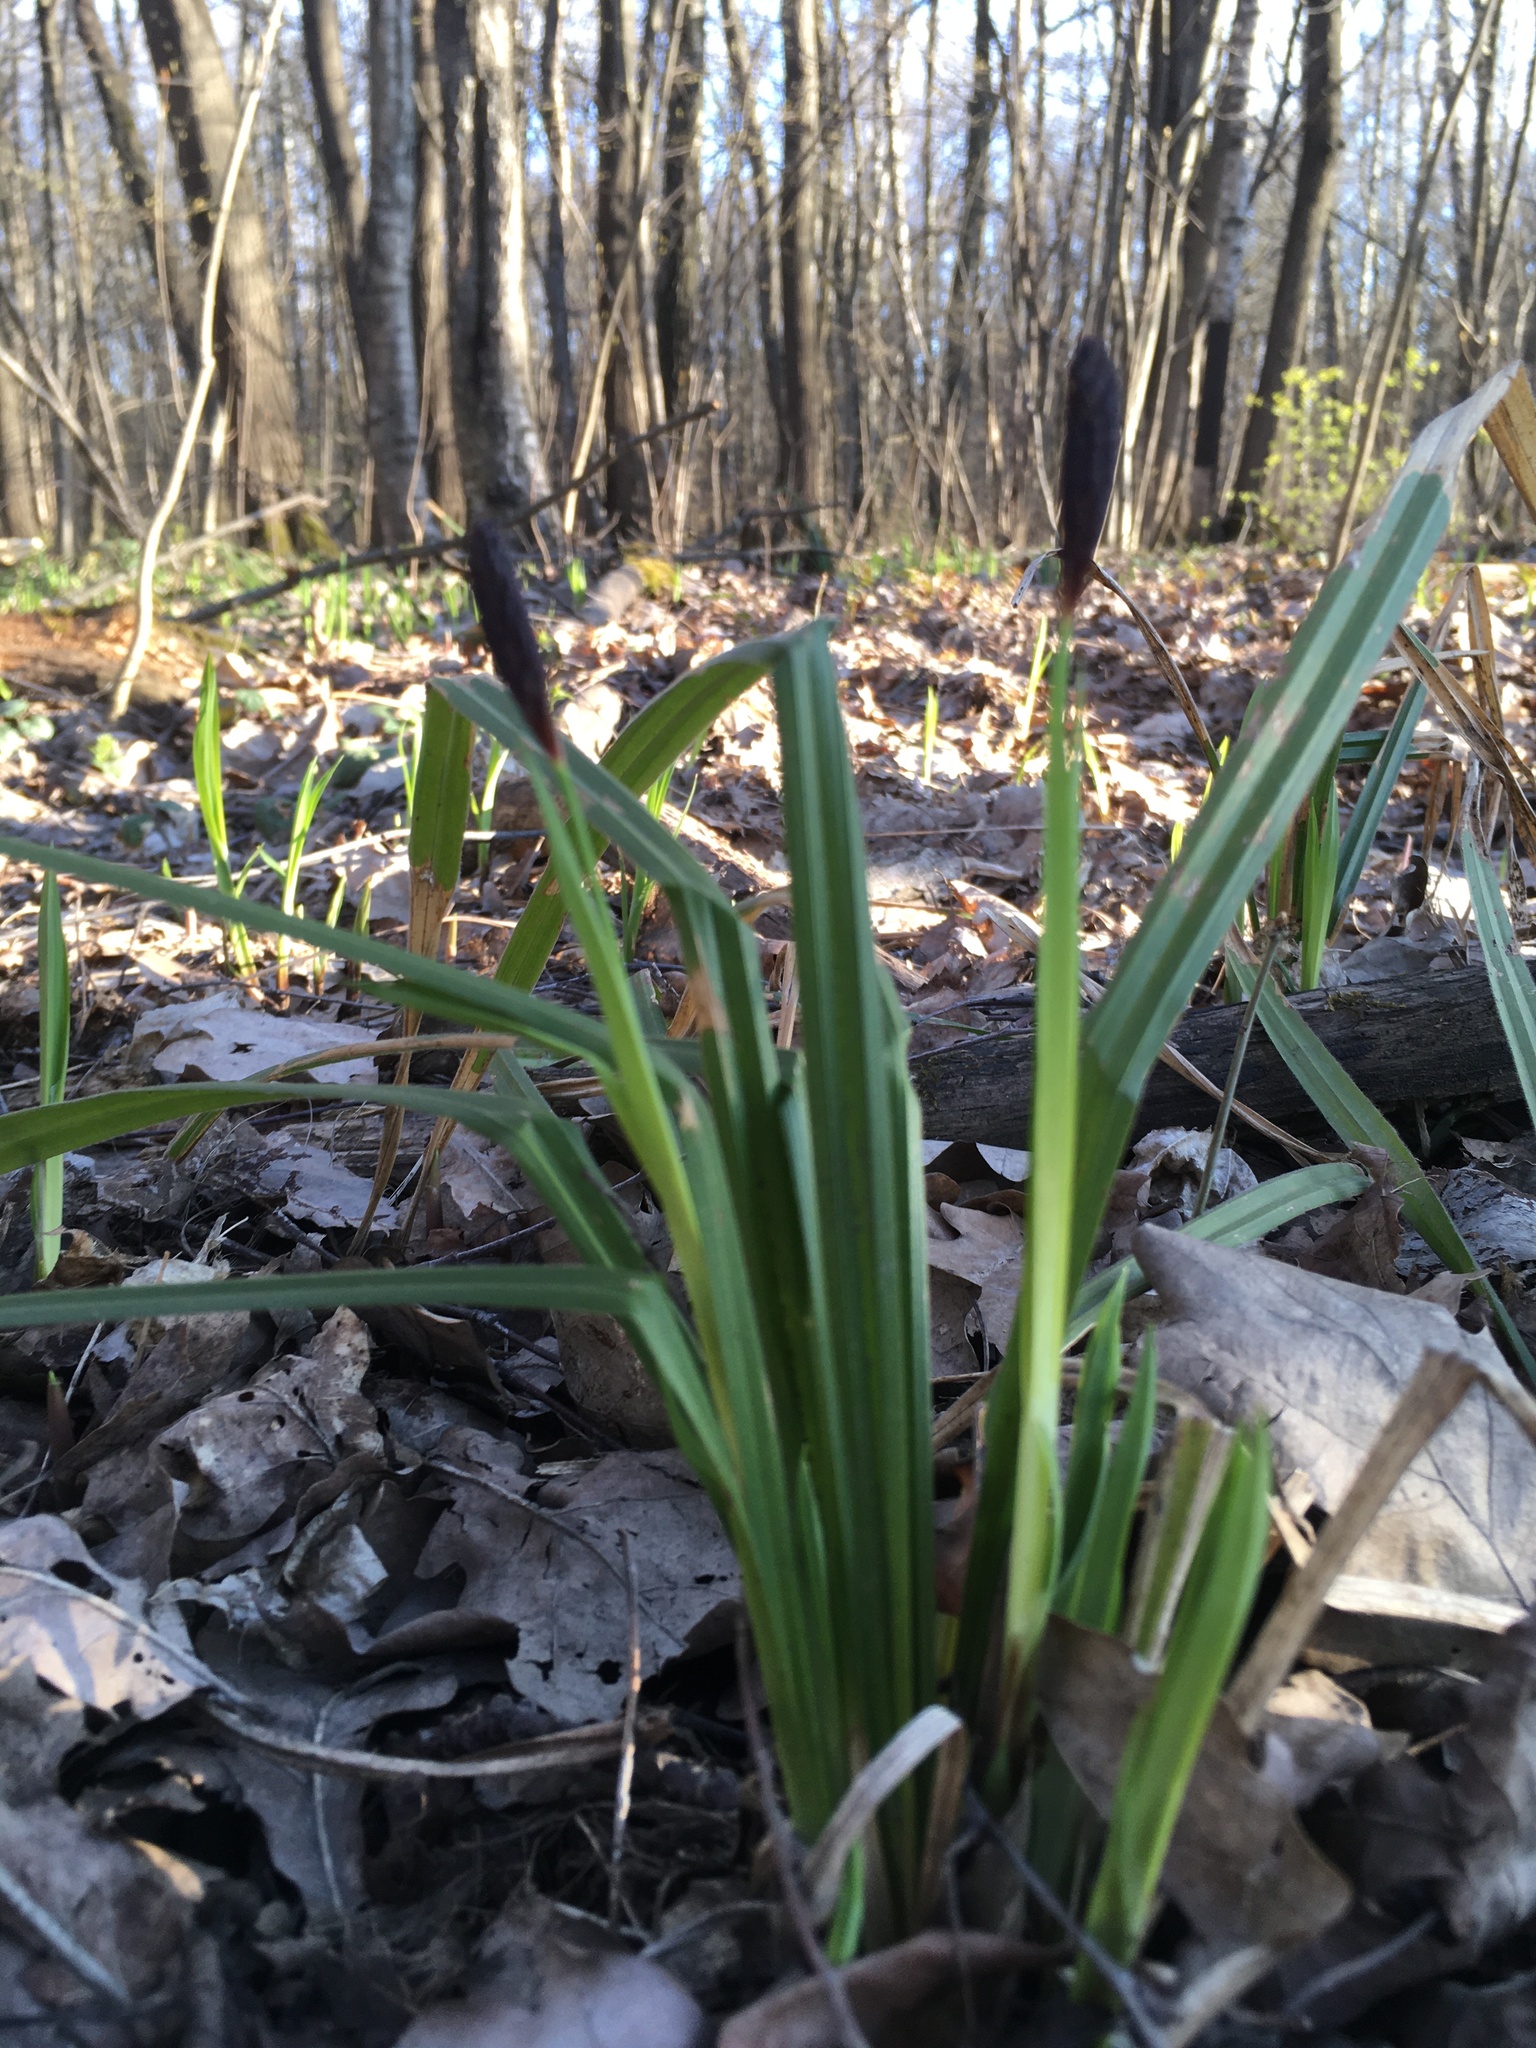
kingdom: Plantae
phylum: Tracheophyta
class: Liliopsida
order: Poales
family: Cyperaceae
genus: Carex
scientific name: Carex pilosa
